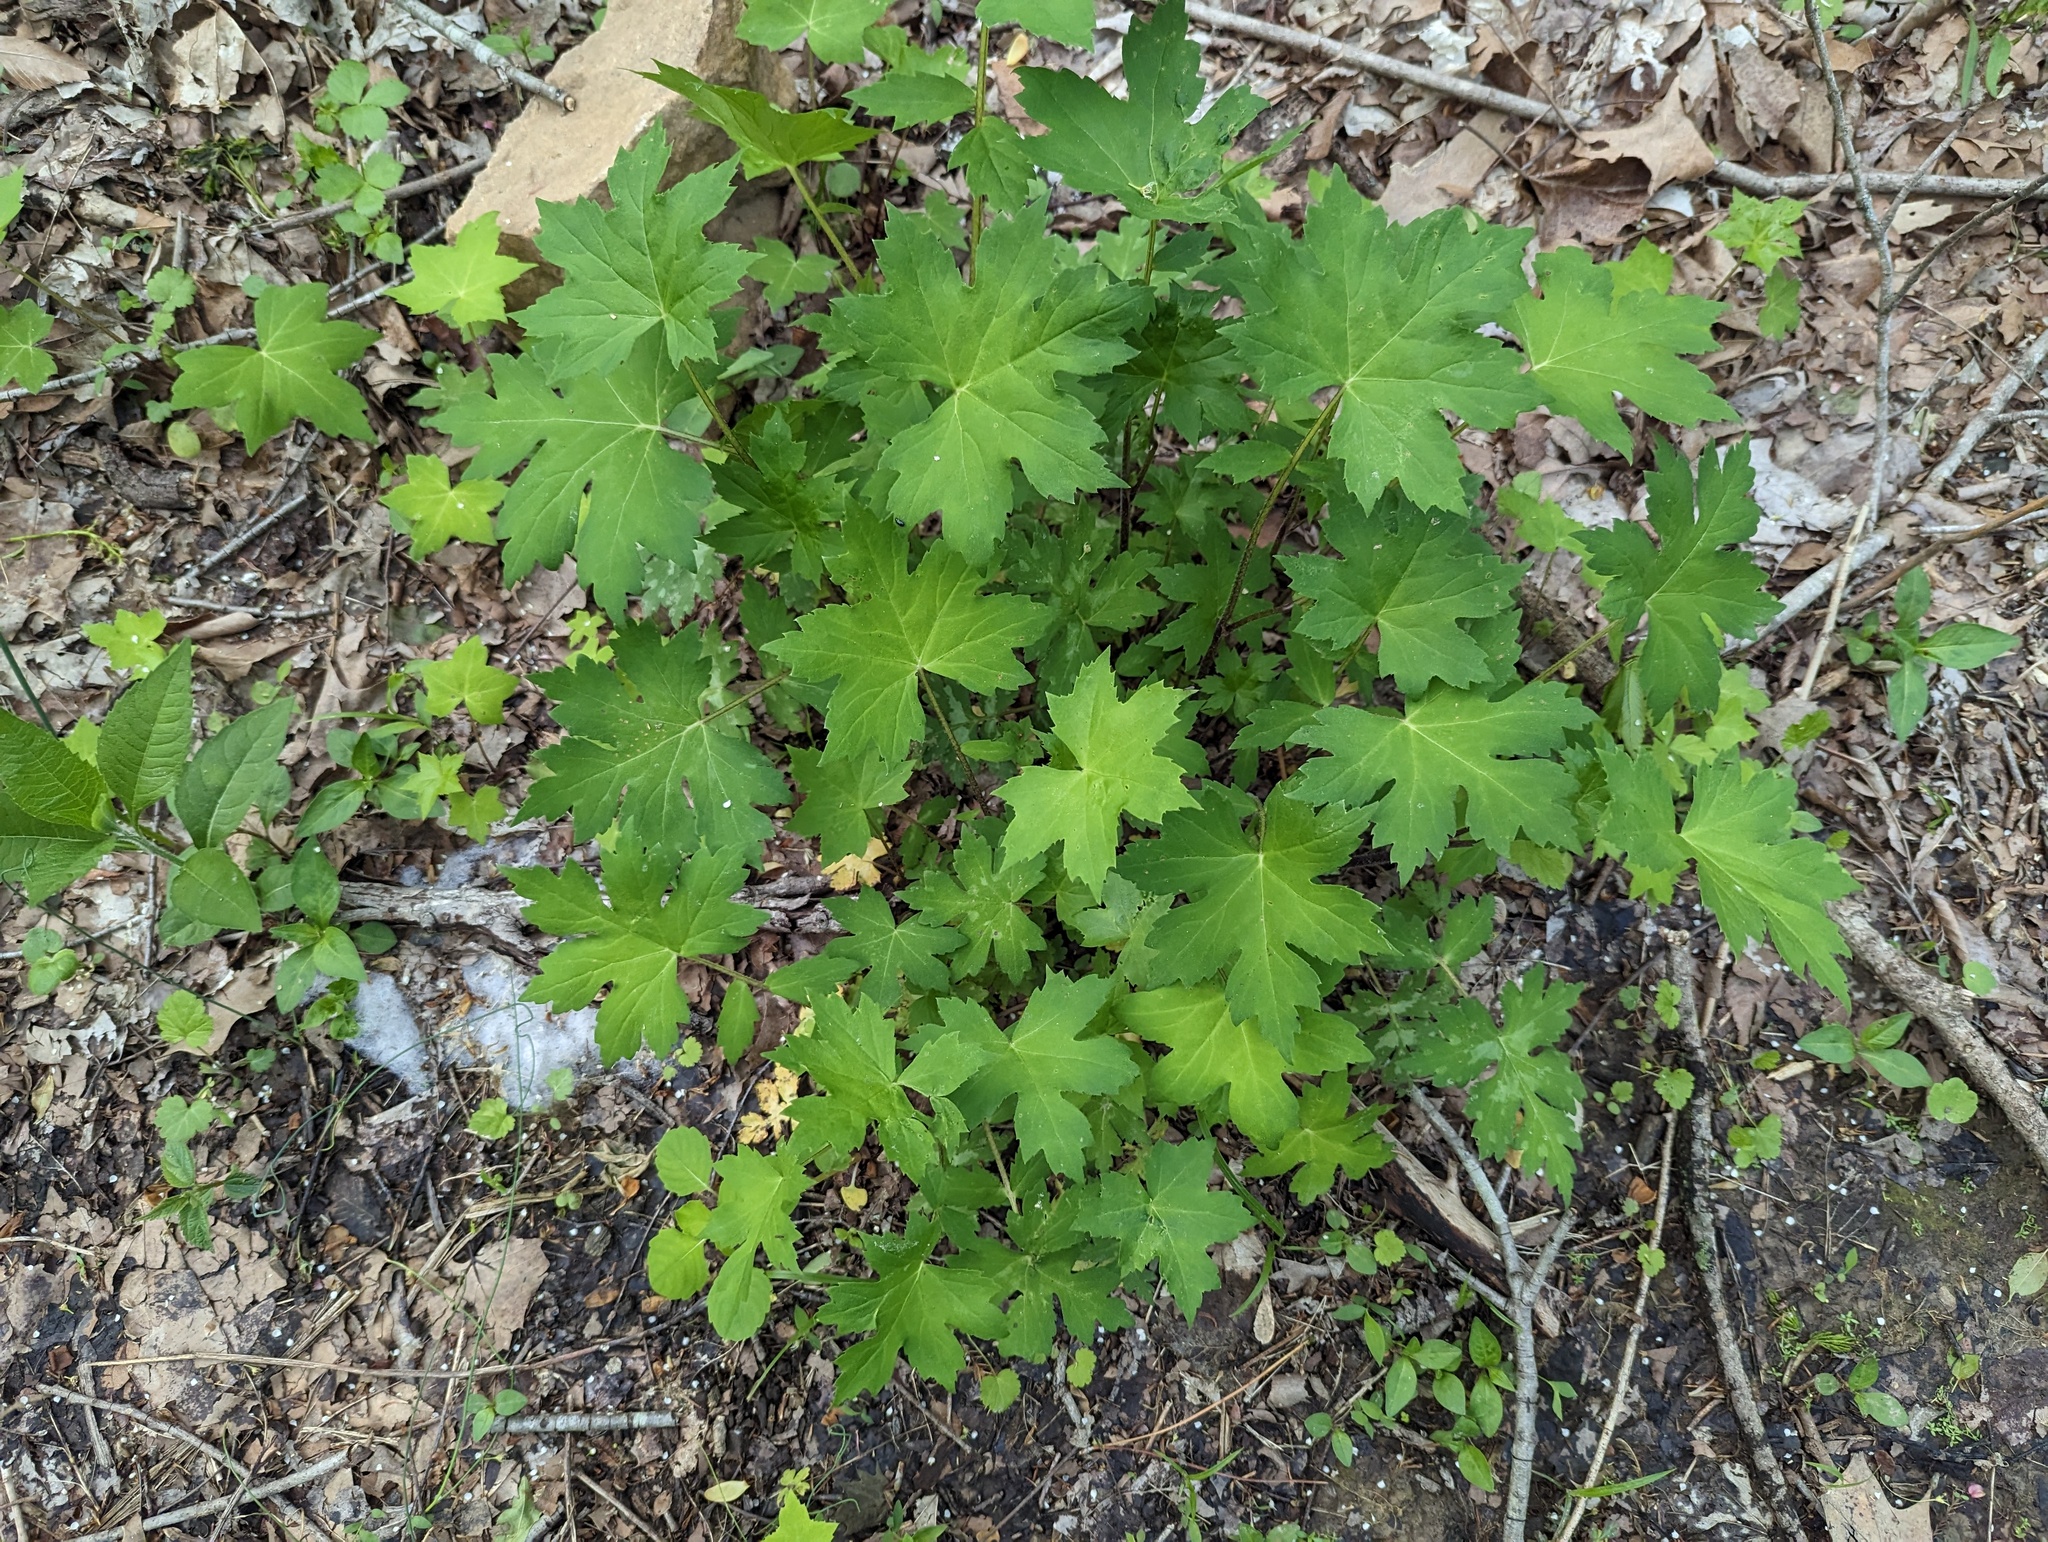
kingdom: Plantae
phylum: Tracheophyta
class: Magnoliopsida
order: Boraginales
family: Hydrophyllaceae
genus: Hydrophyllum
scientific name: Hydrophyllum canadense
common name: Canada waterleaf
